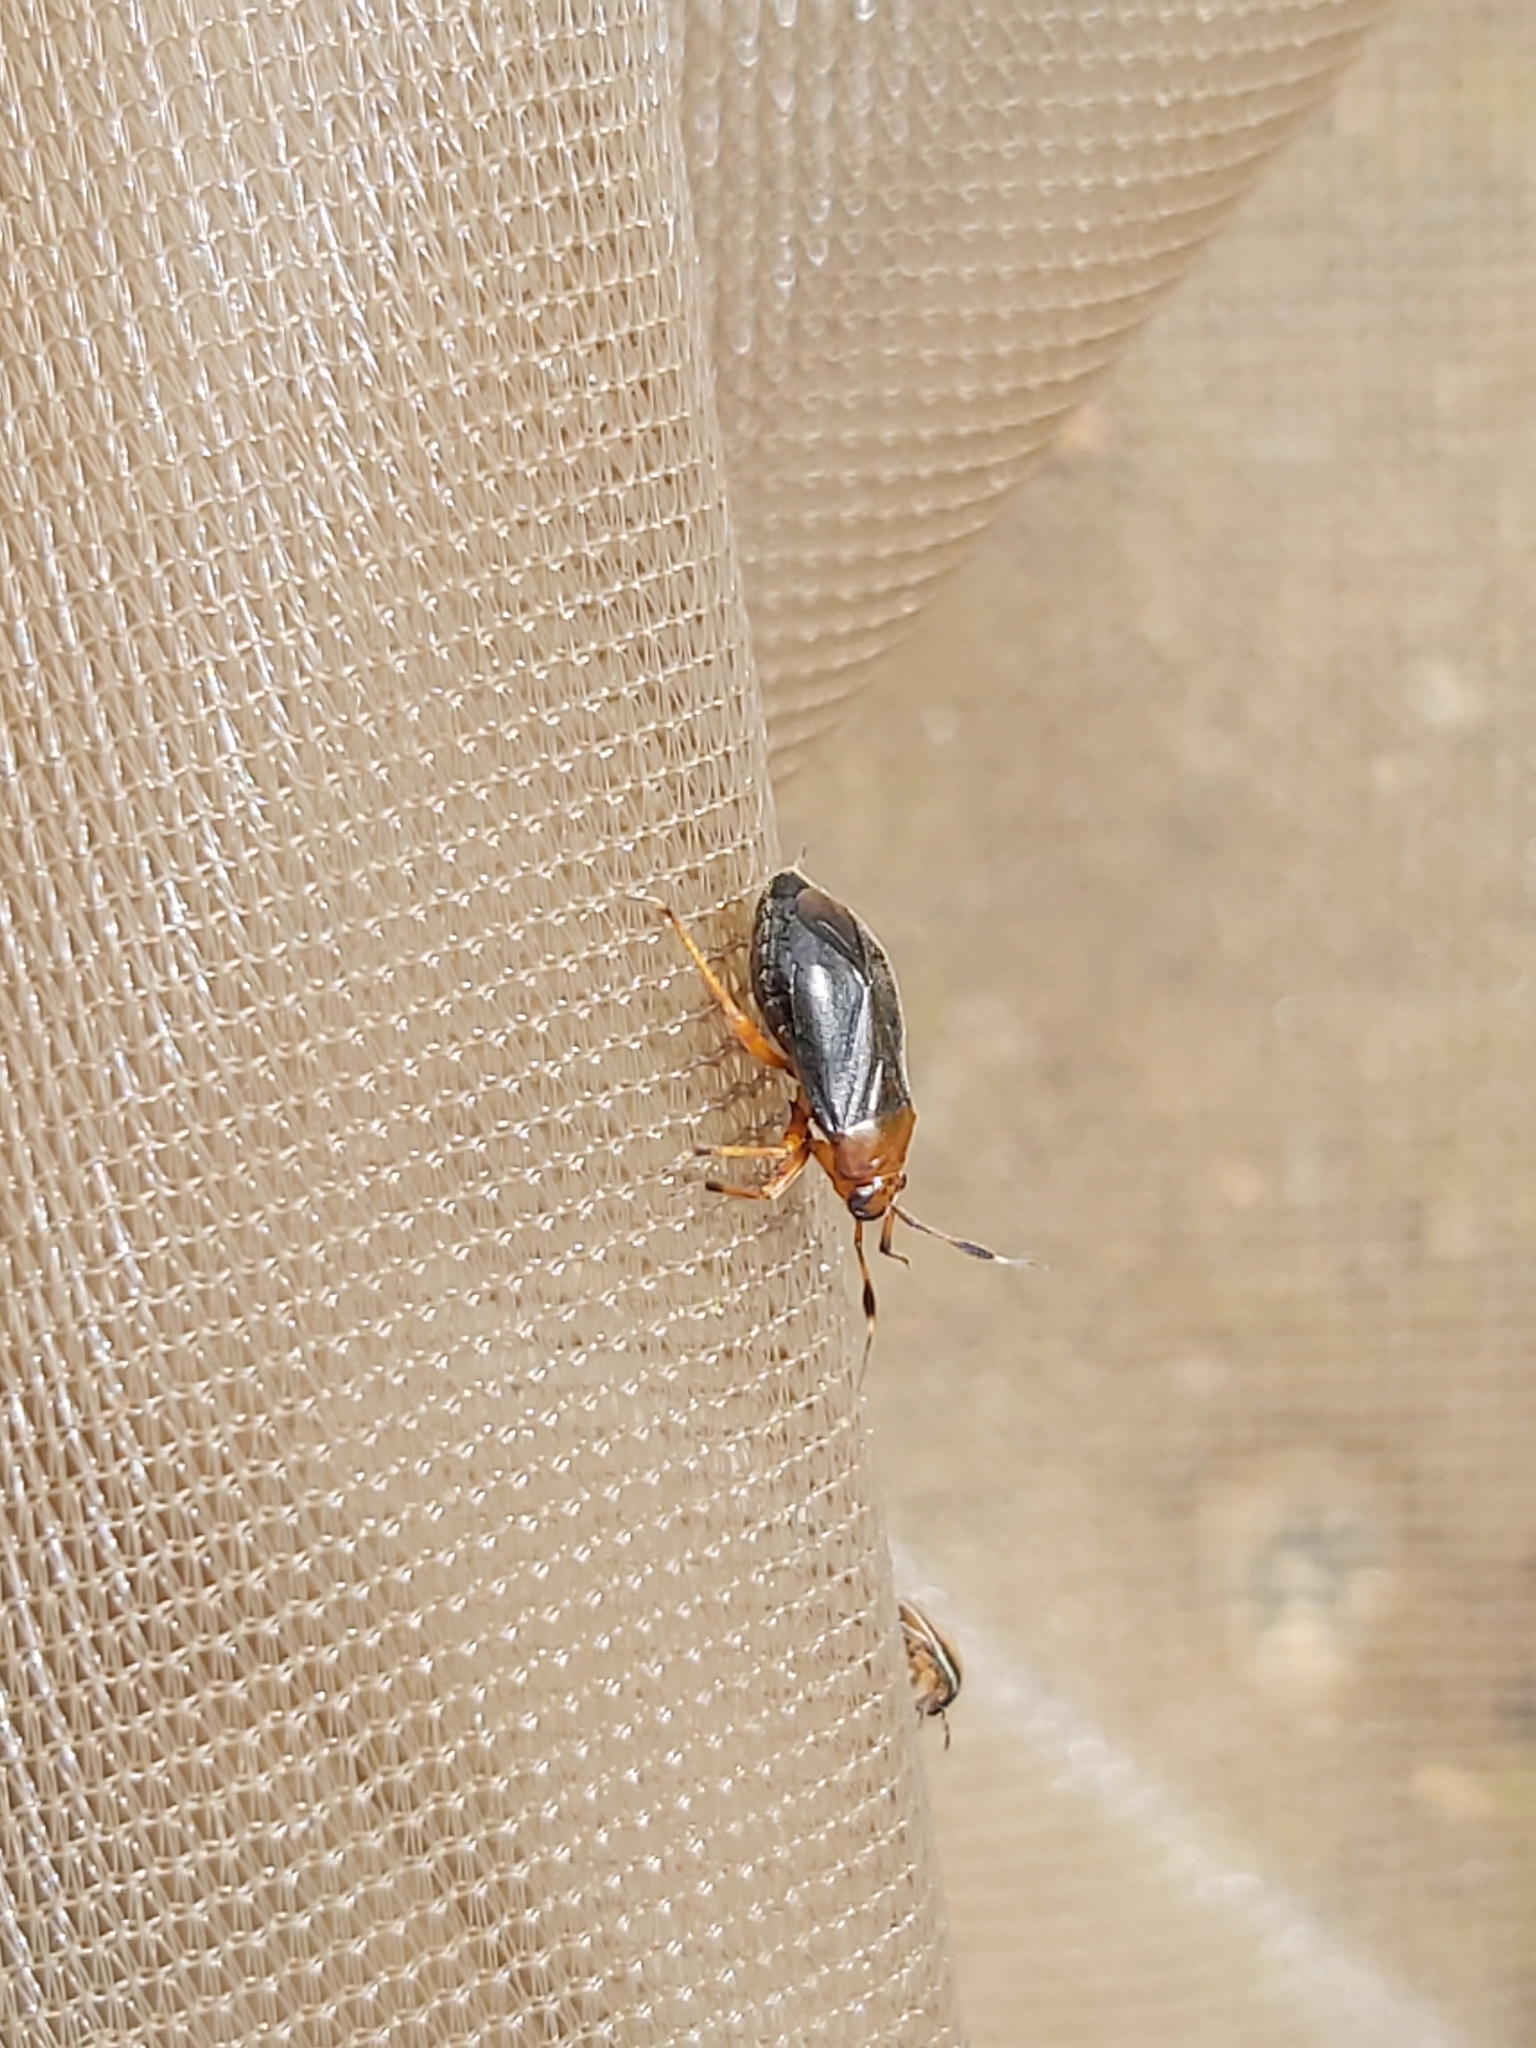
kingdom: Animalia
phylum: Arthropoda
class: Insecta
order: Hemiptera
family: Miridae
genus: Capsus
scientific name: Capsus ater
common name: Black plant bug
